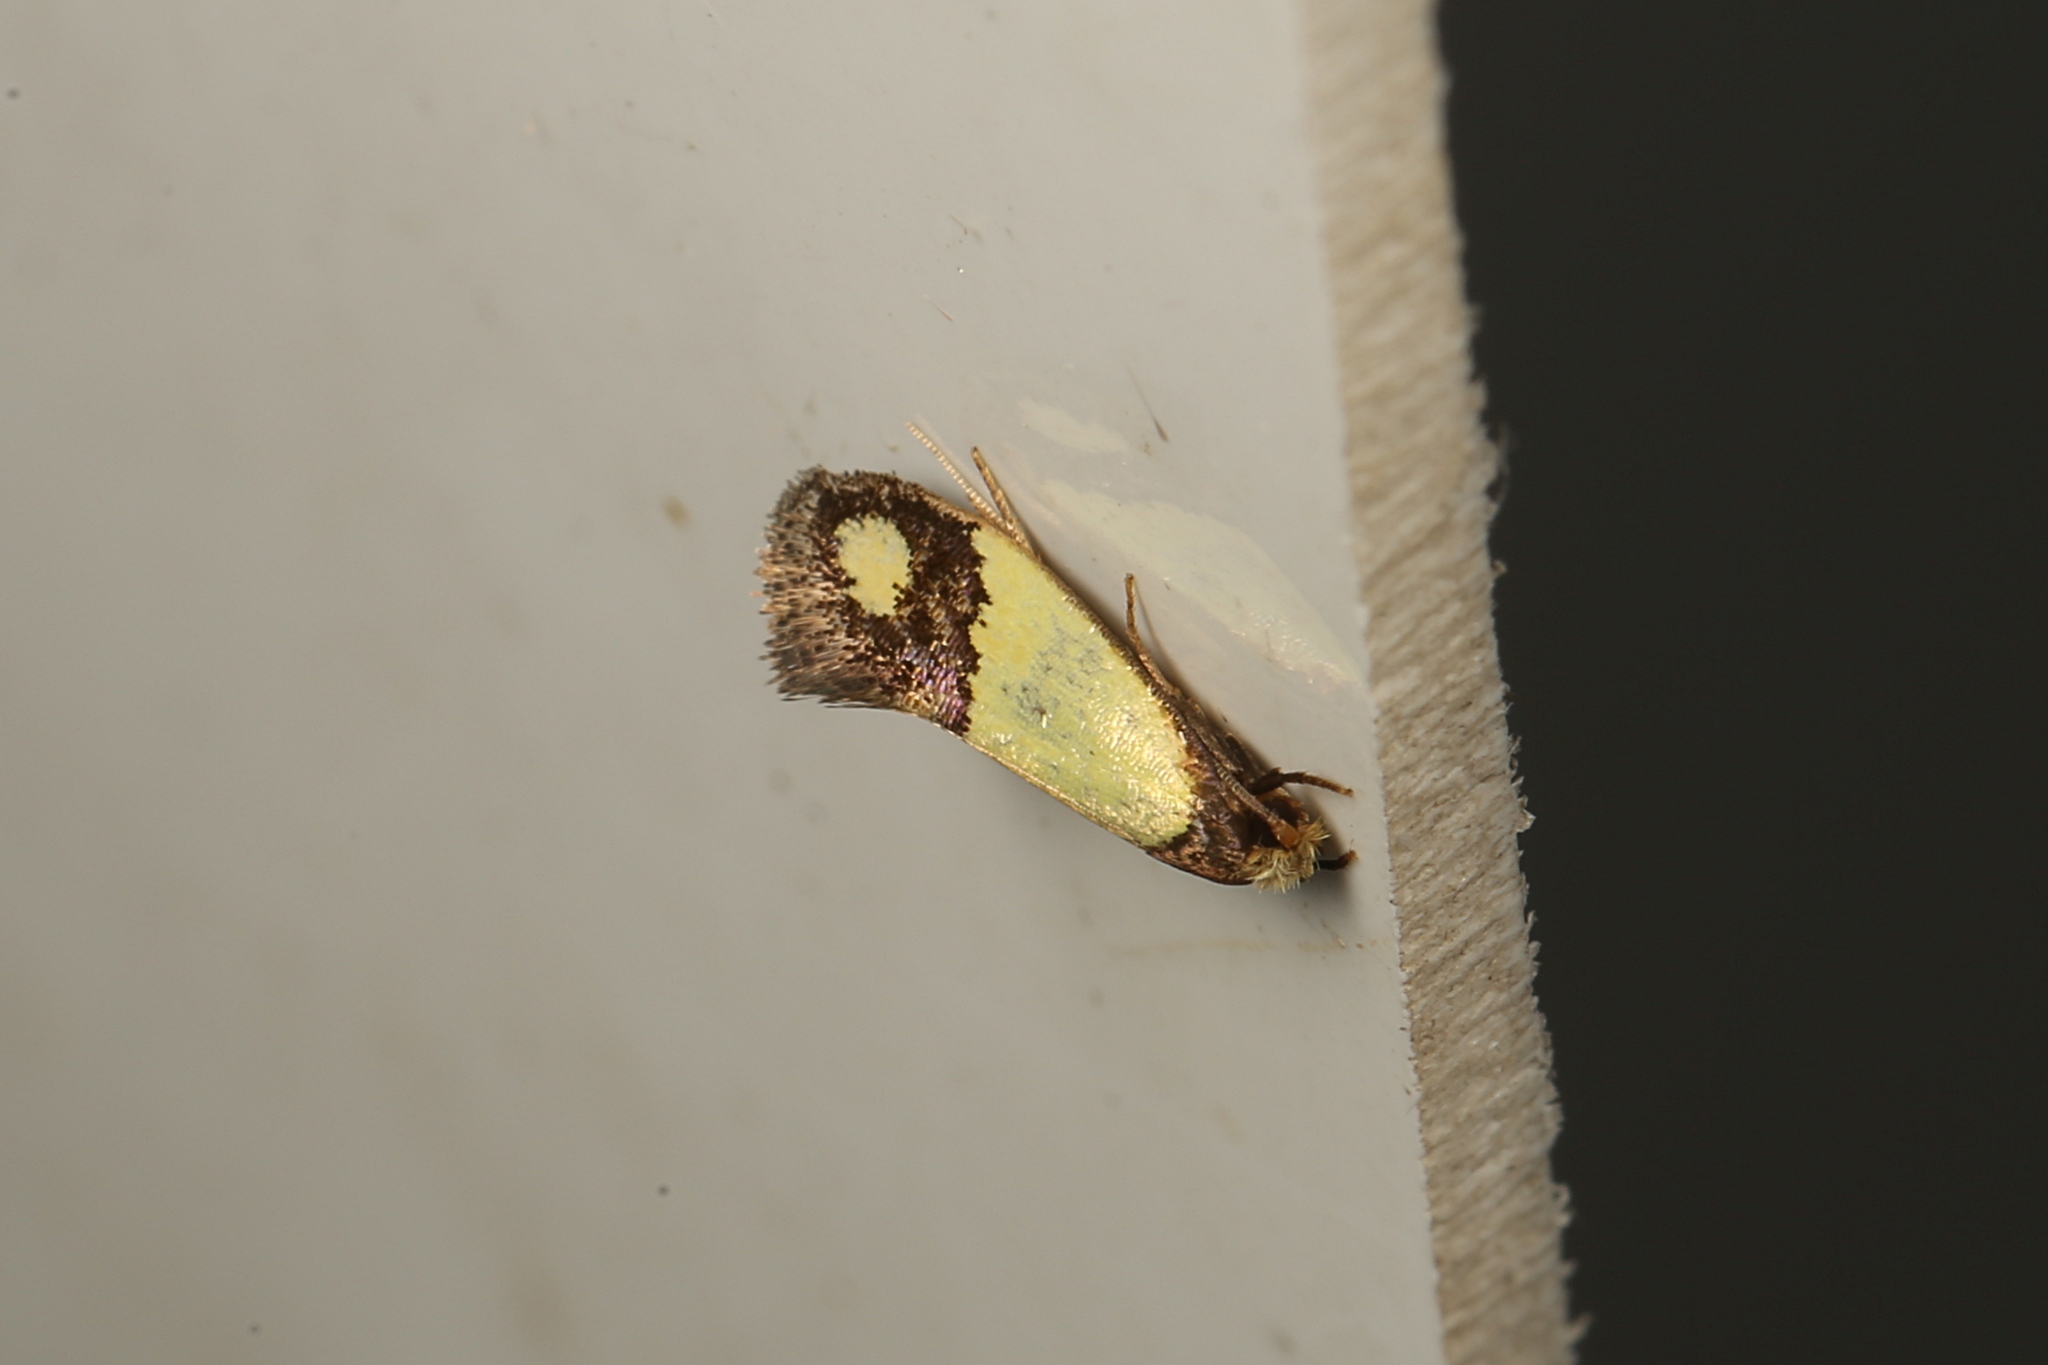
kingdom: Animalia
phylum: Arthropoda
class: Insecta
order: Lepidoptera
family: Tineidae
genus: Edosa
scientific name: Edosa fraudulens
